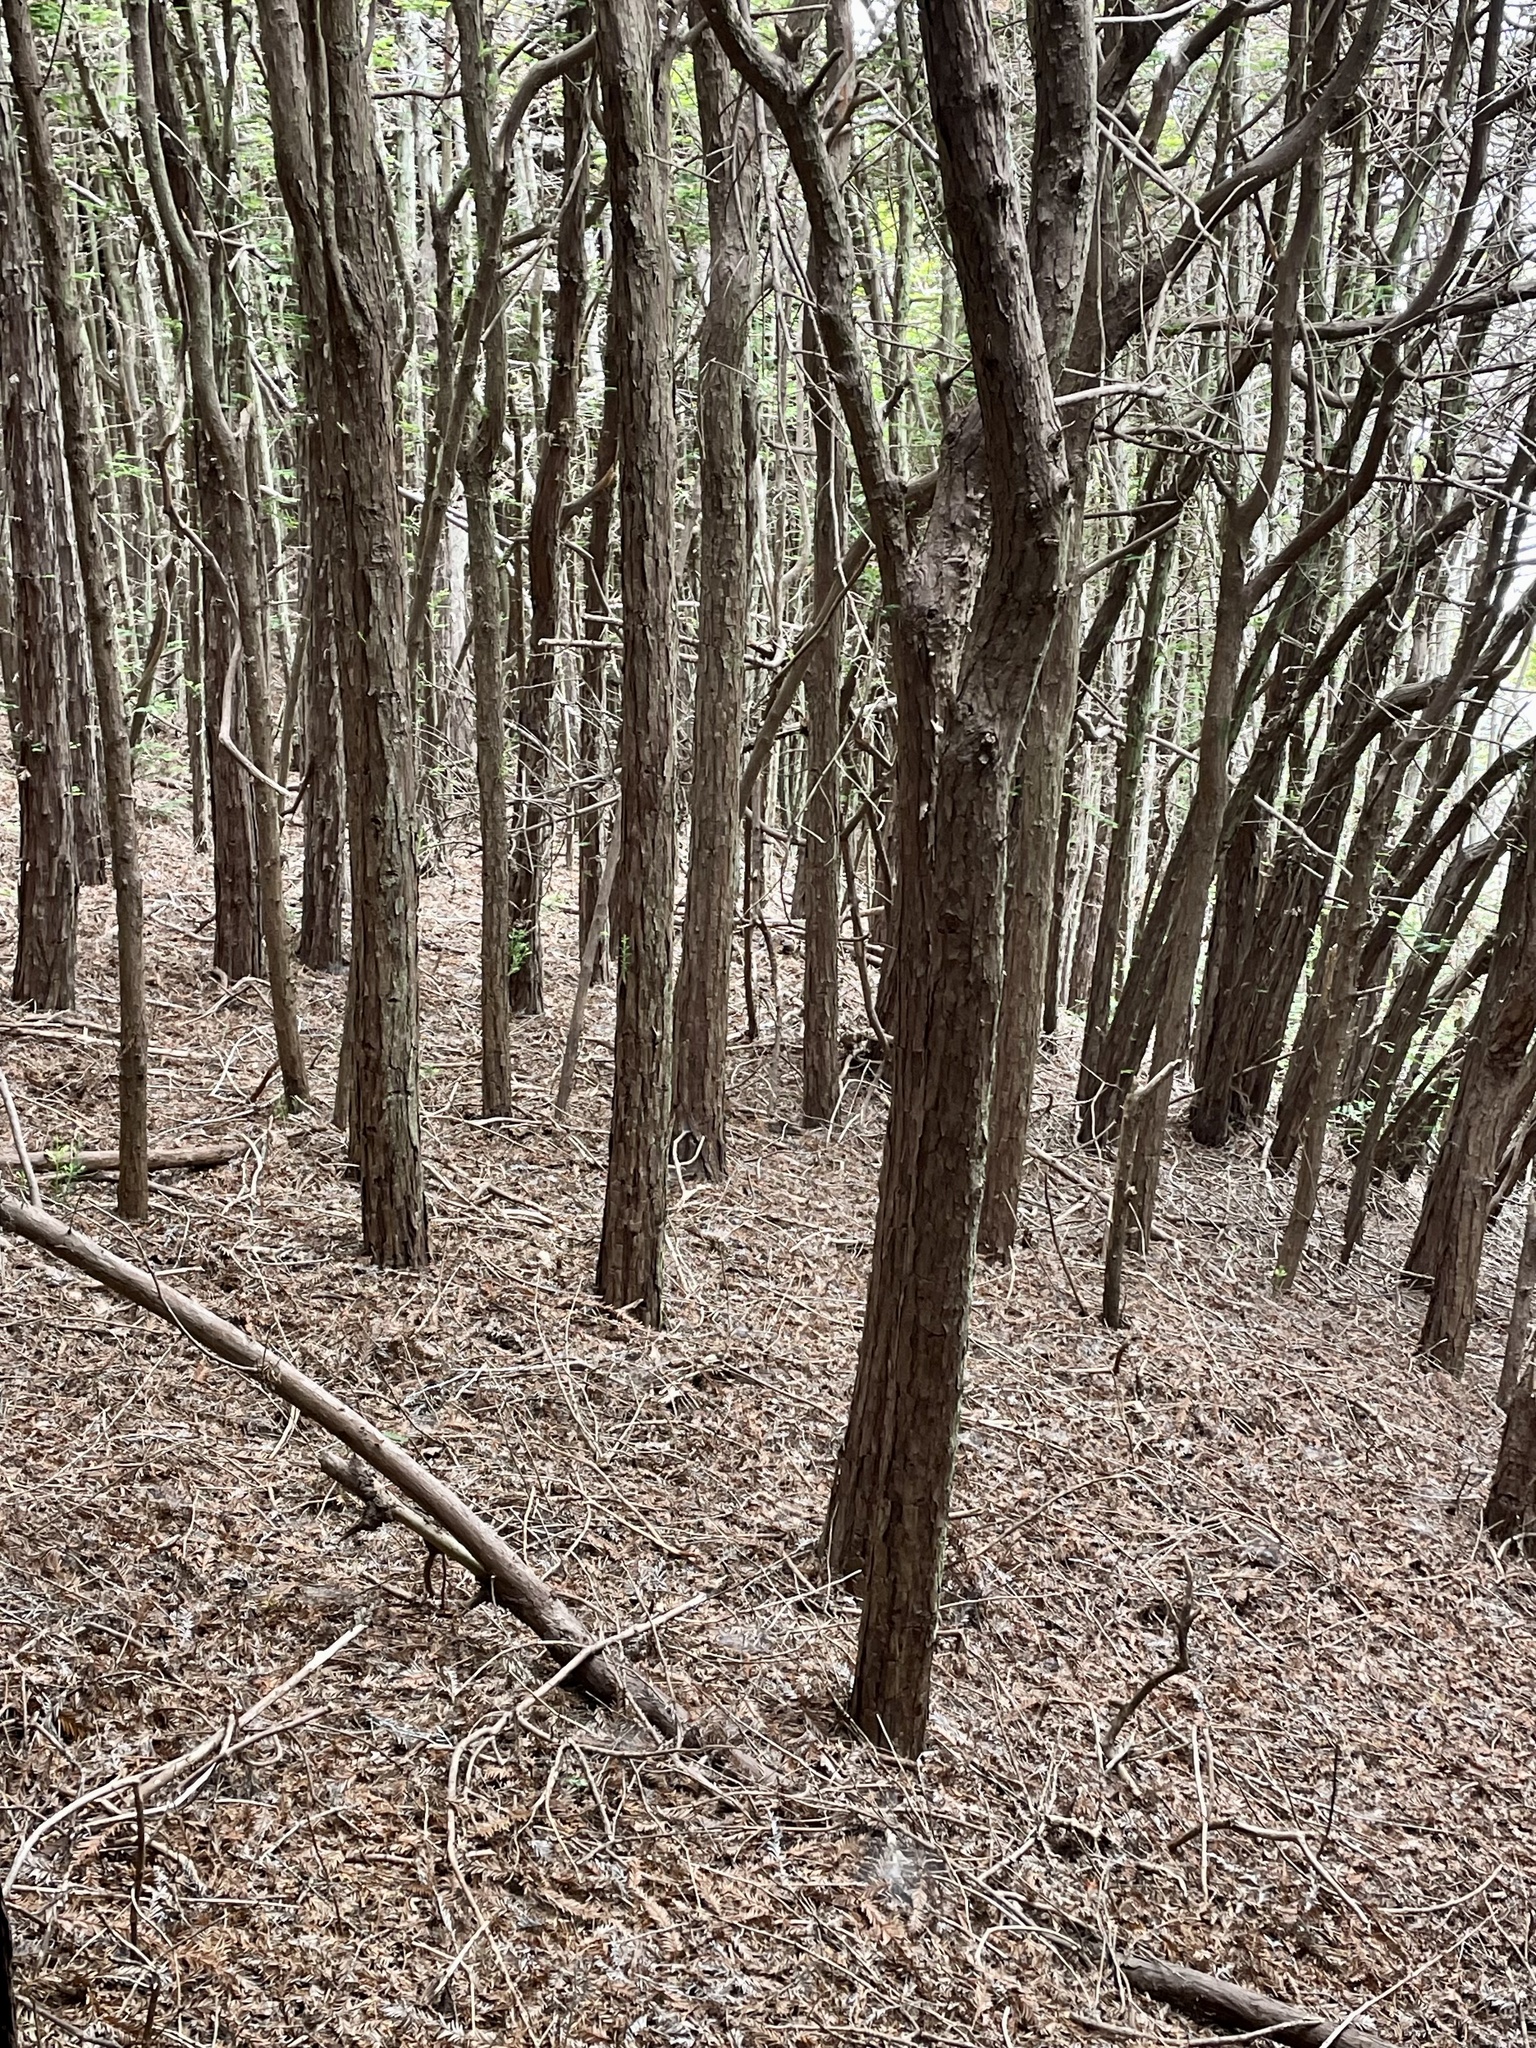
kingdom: Plantae
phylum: Tracheophyta
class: Pinopsida
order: Pinales
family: Cupressaceae
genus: Sequoia
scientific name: Sequoia sempervirens
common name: Coast redwood
